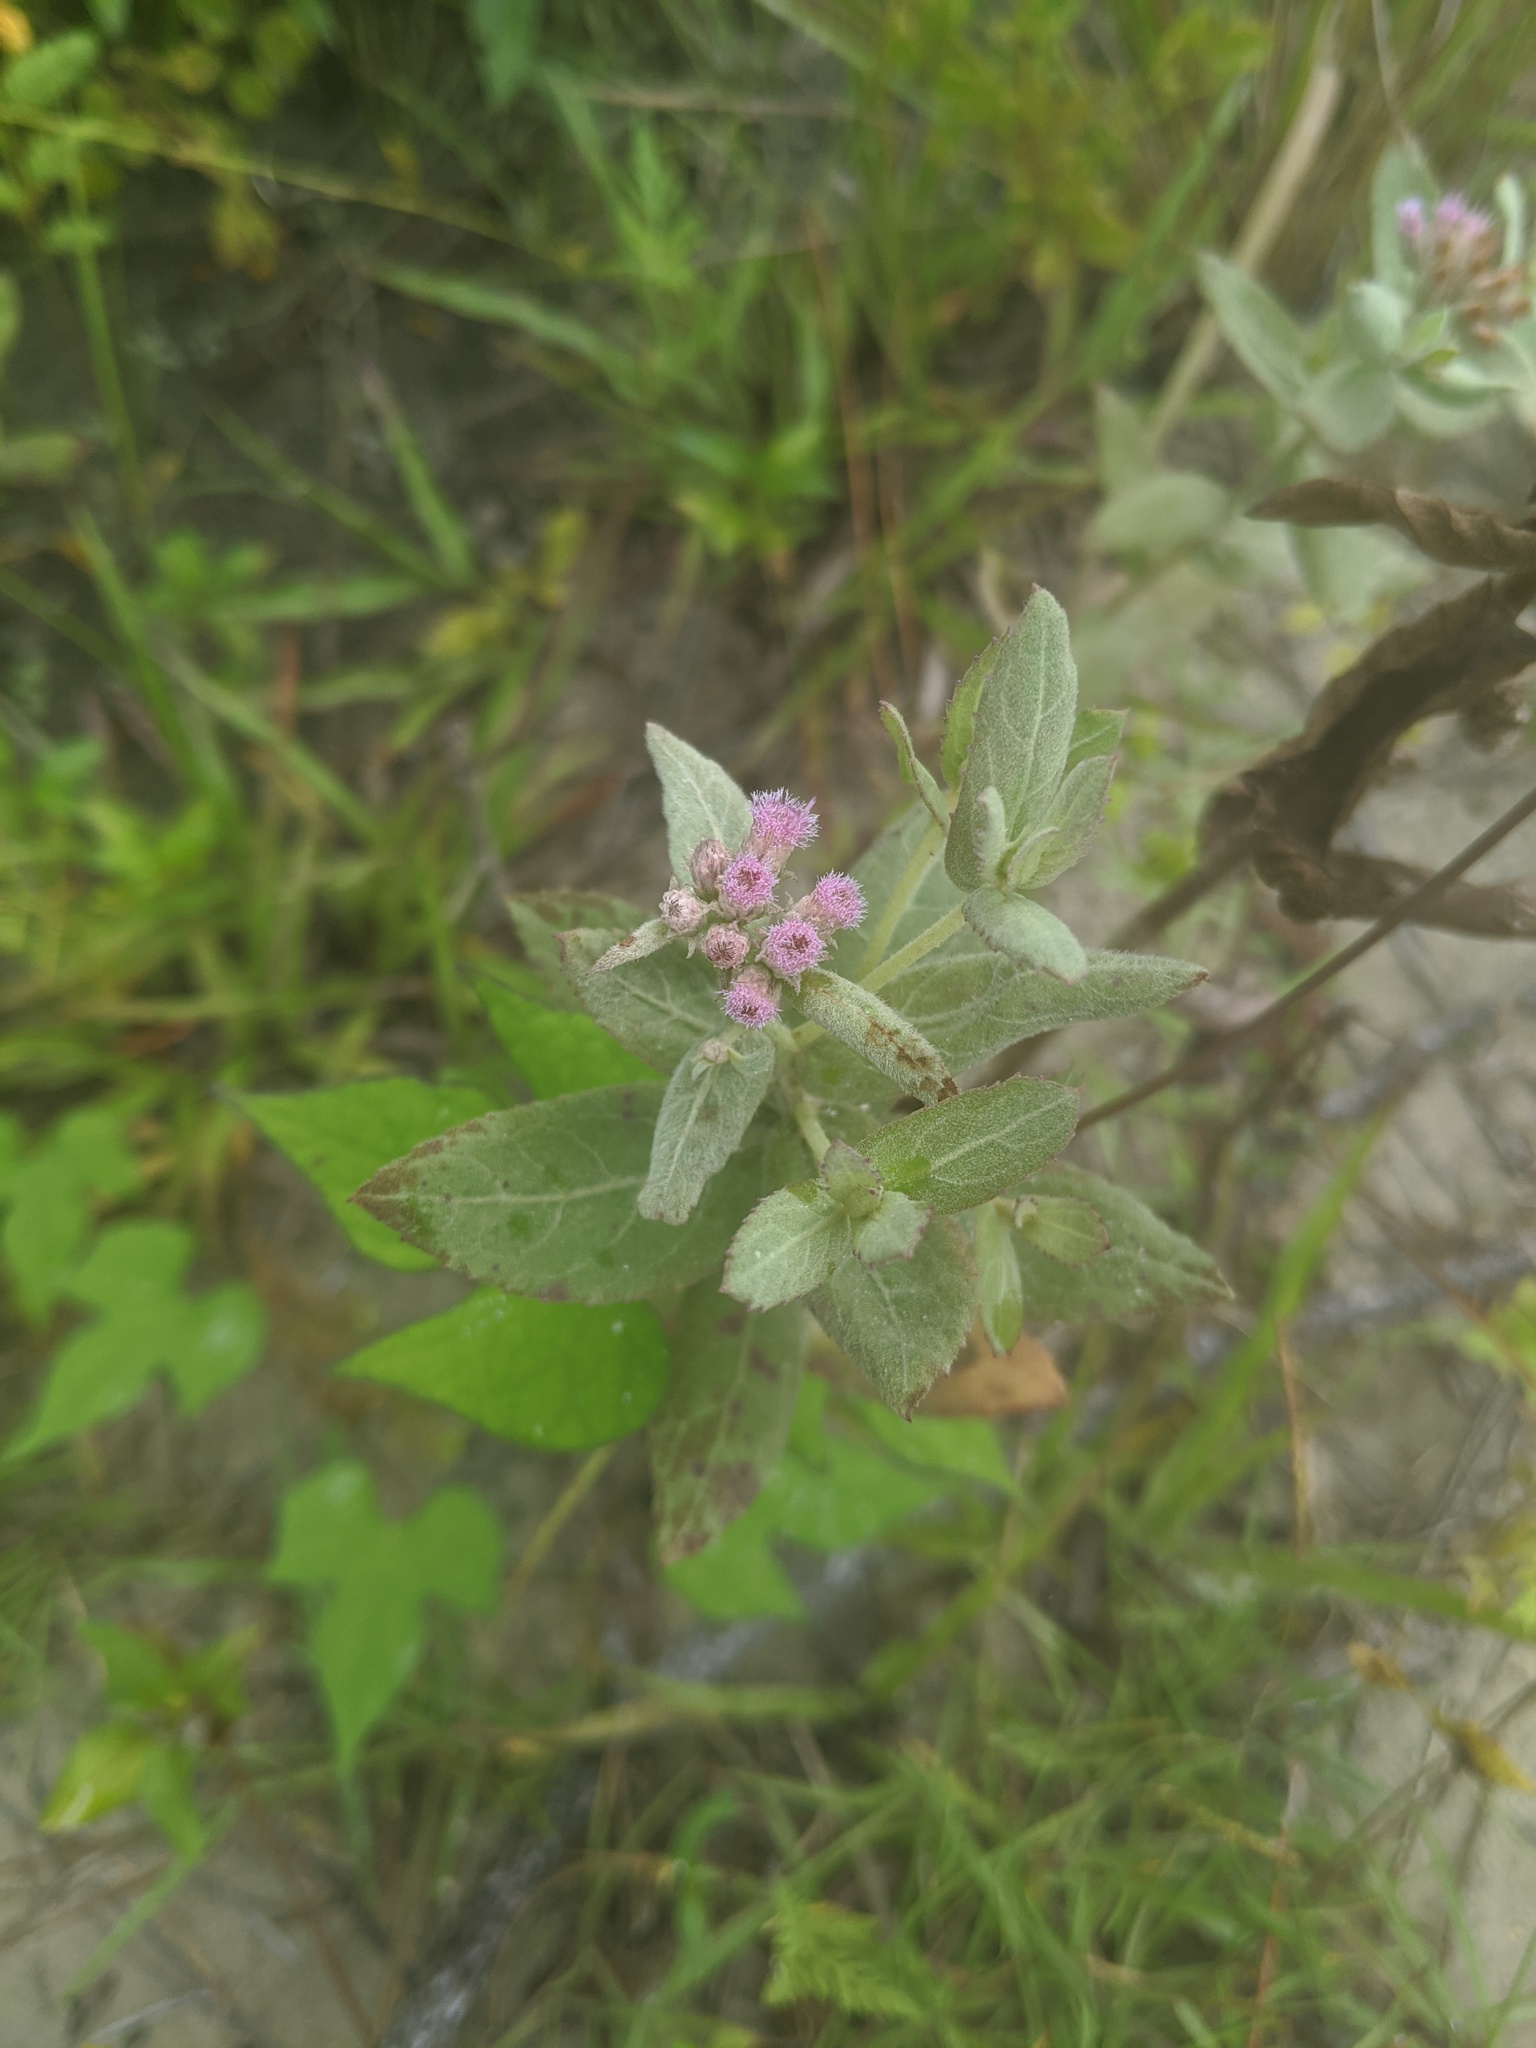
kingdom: Plantae
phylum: Tracheophyta
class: Magnoliopsida
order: Asterales
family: Asteraceae
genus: Pluchea
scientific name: Pluchea baccharis
